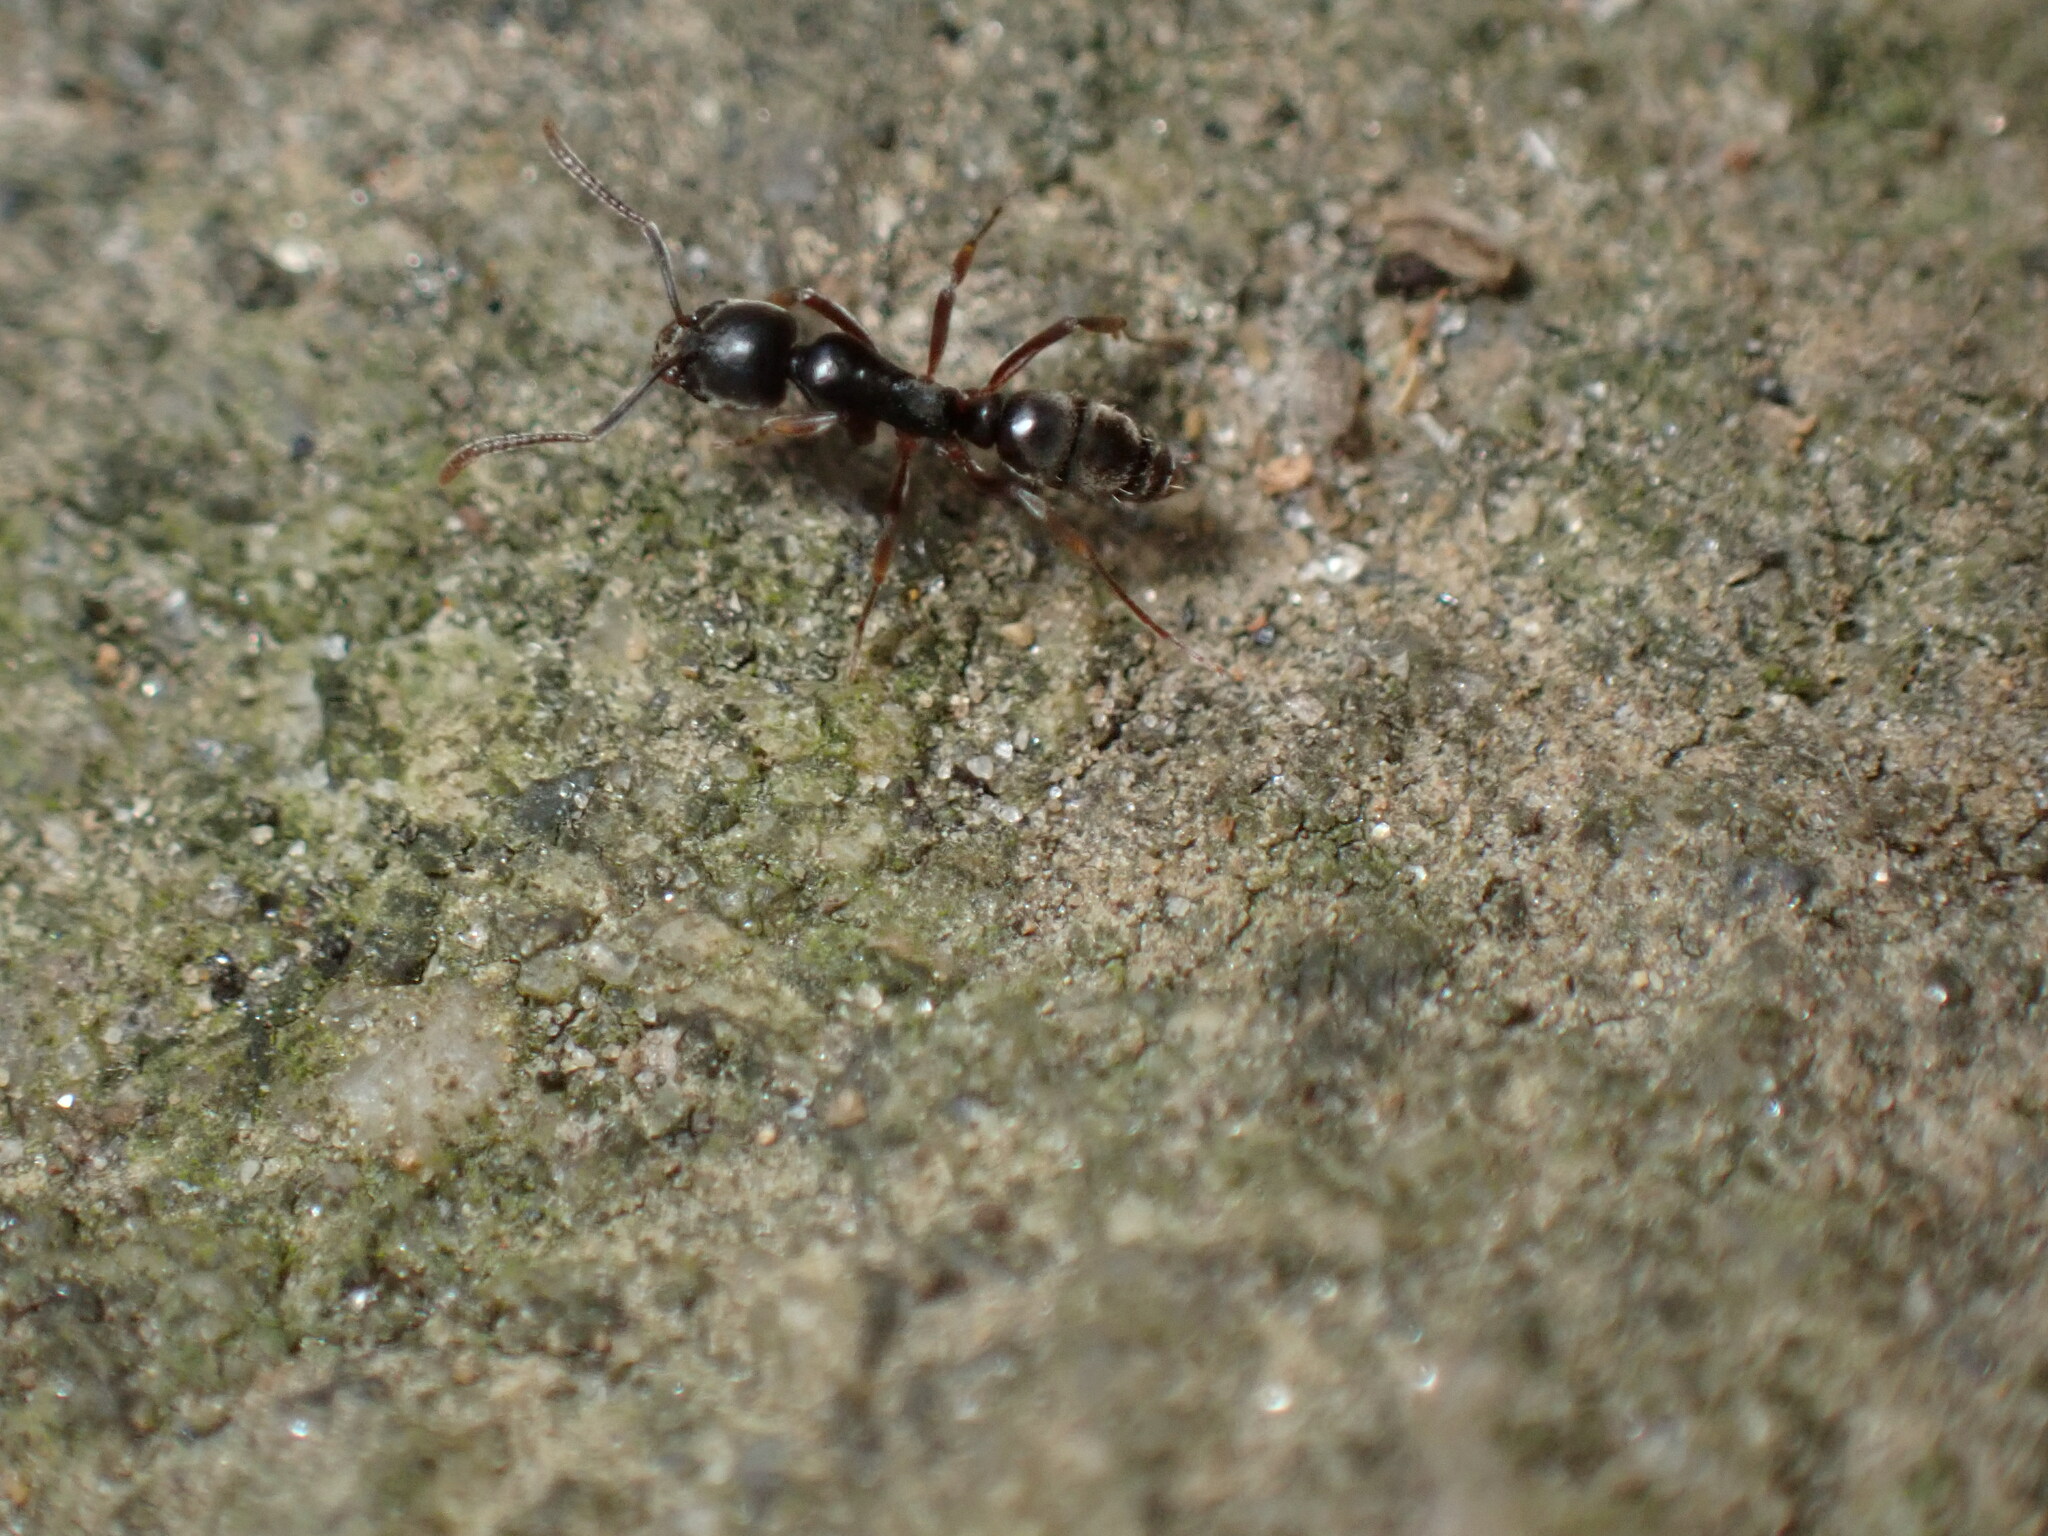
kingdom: Animalia
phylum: Arthropoda
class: Insecta
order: Hymenoptera
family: Formicidae
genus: Pachycondyla
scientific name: Pachycondyla chinensis
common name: Asian needle ant
